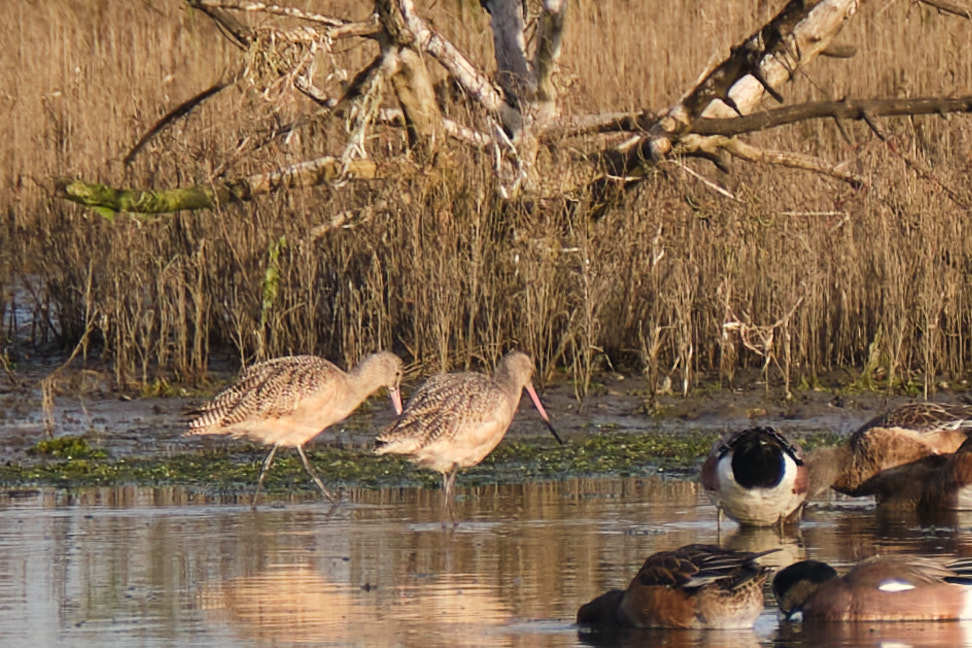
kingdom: Animalia
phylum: Chordata
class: Aves
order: Charadriiformes
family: Scolopacidae
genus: Limosa
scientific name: Limosa fedoa
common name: Marbled godwit
